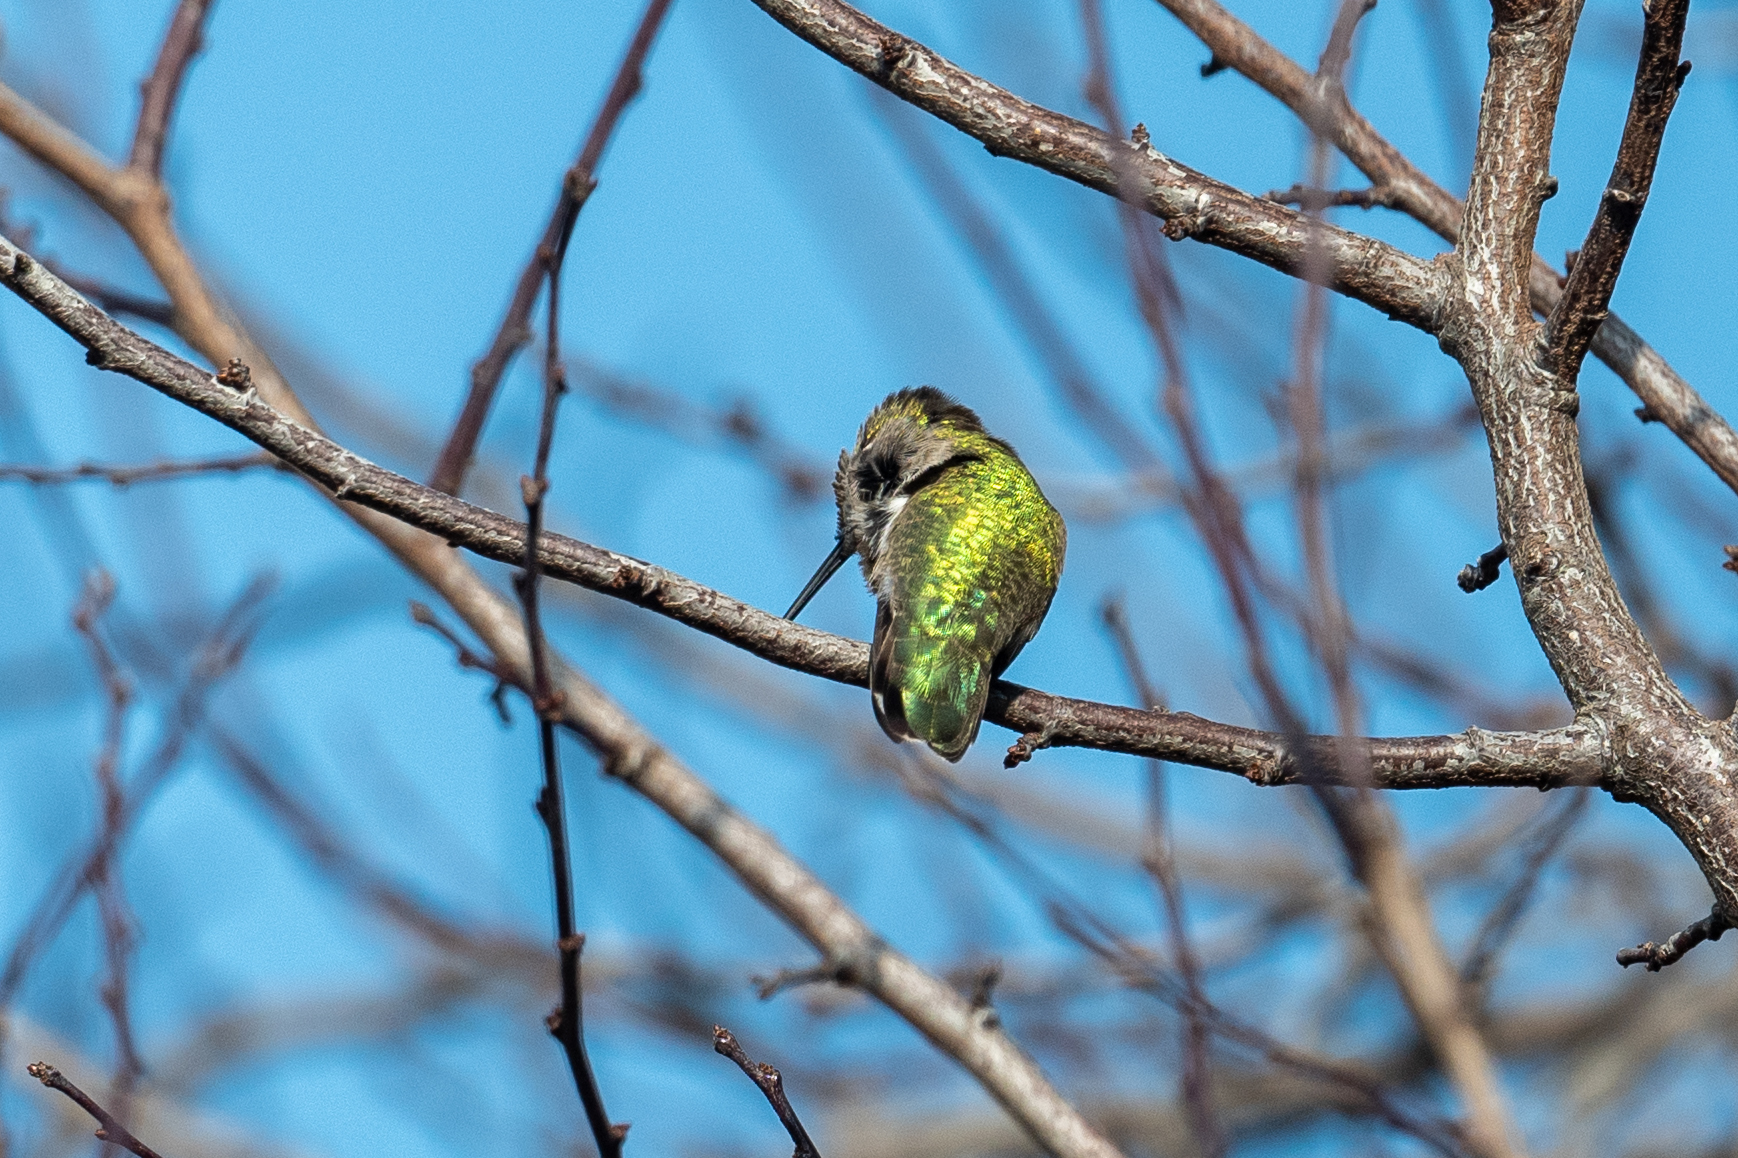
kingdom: Animalia
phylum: Chordata
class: Aves
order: Apodiformes
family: Trochilidae
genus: Calypte
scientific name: Calypte anna
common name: Anna's hummingbird
